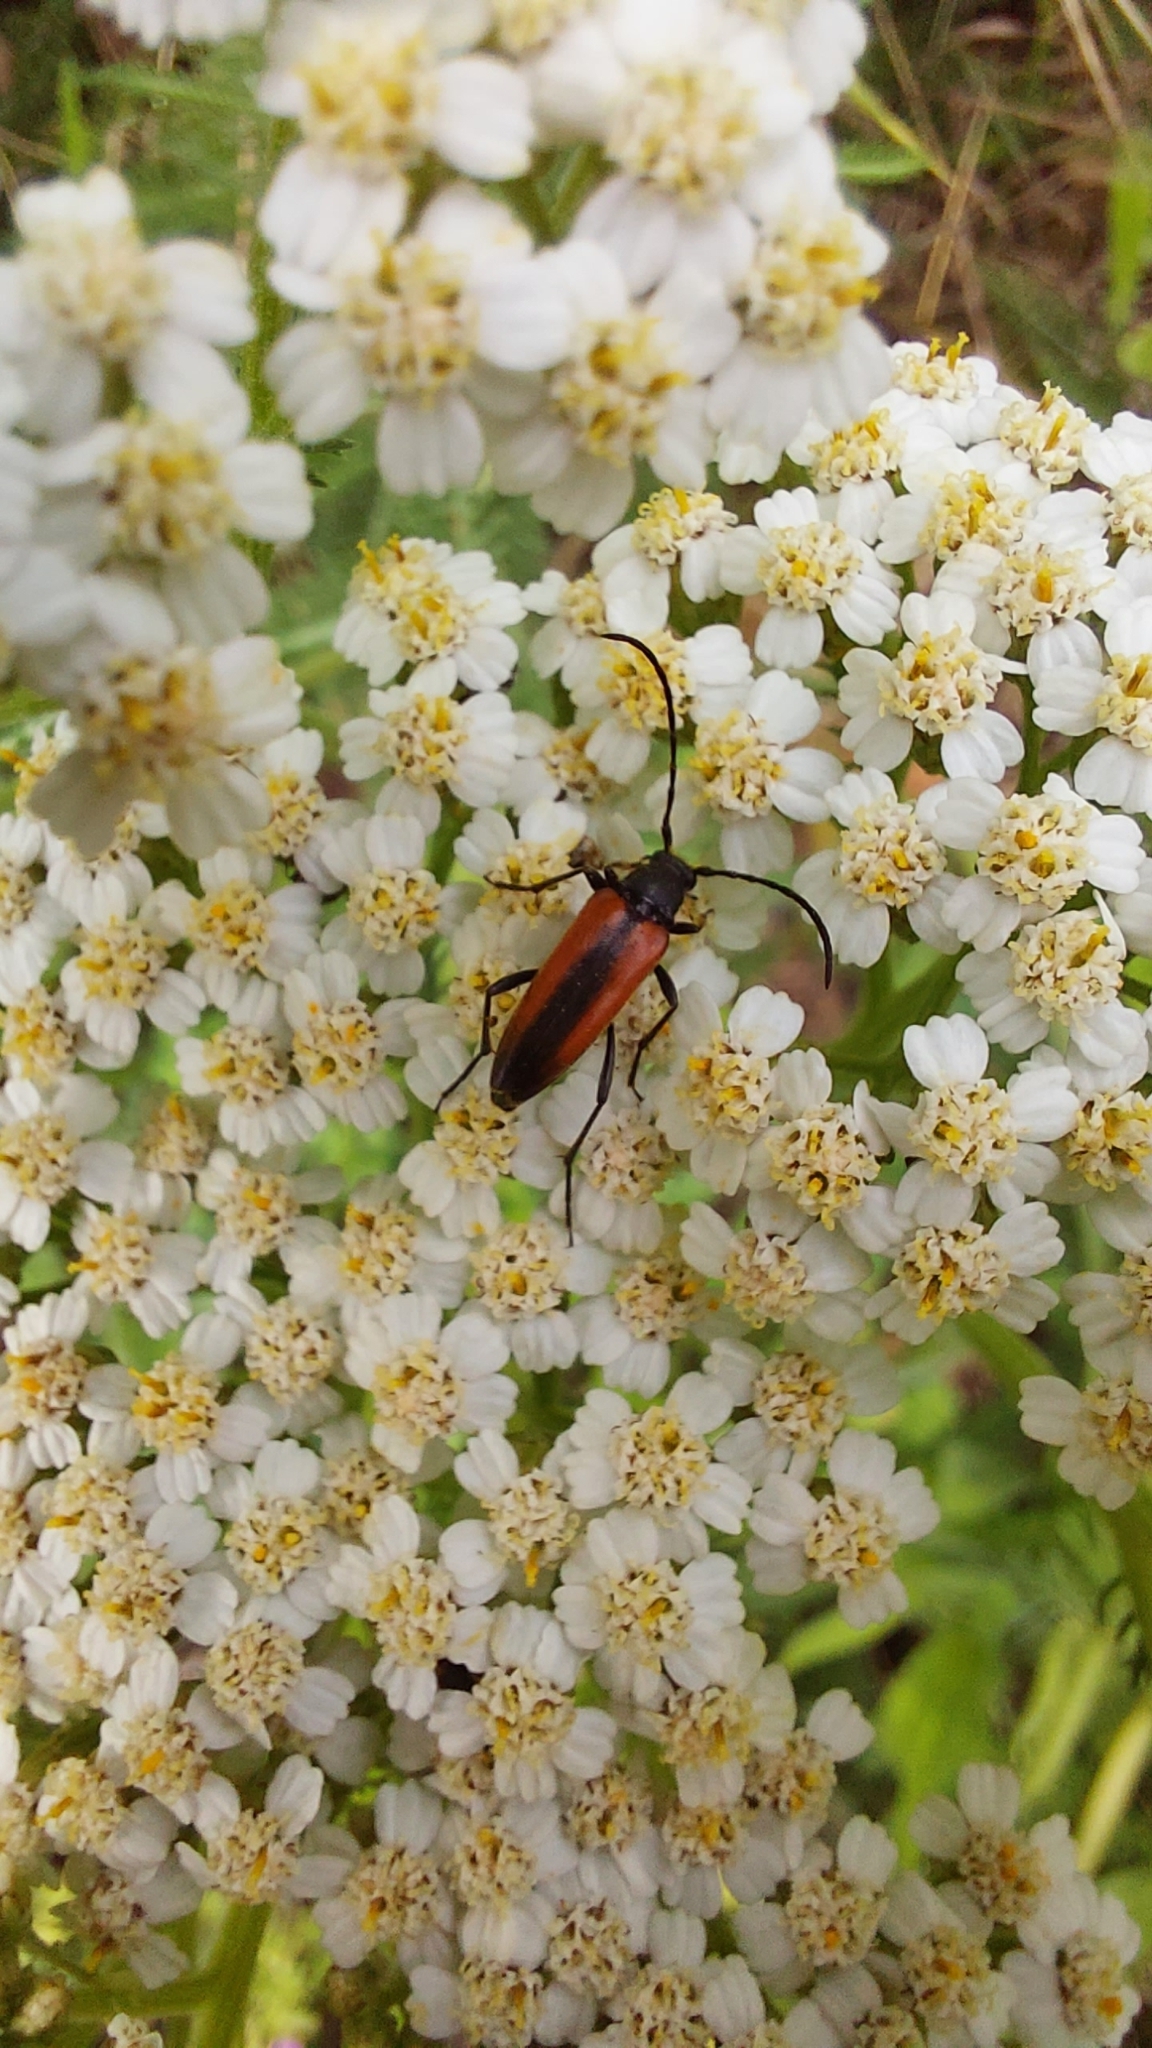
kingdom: Animalia
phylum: Arthropoda
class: Insecta
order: Coleoptera
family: Cerambycidae
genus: Stenurella
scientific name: Stenurella melanura
